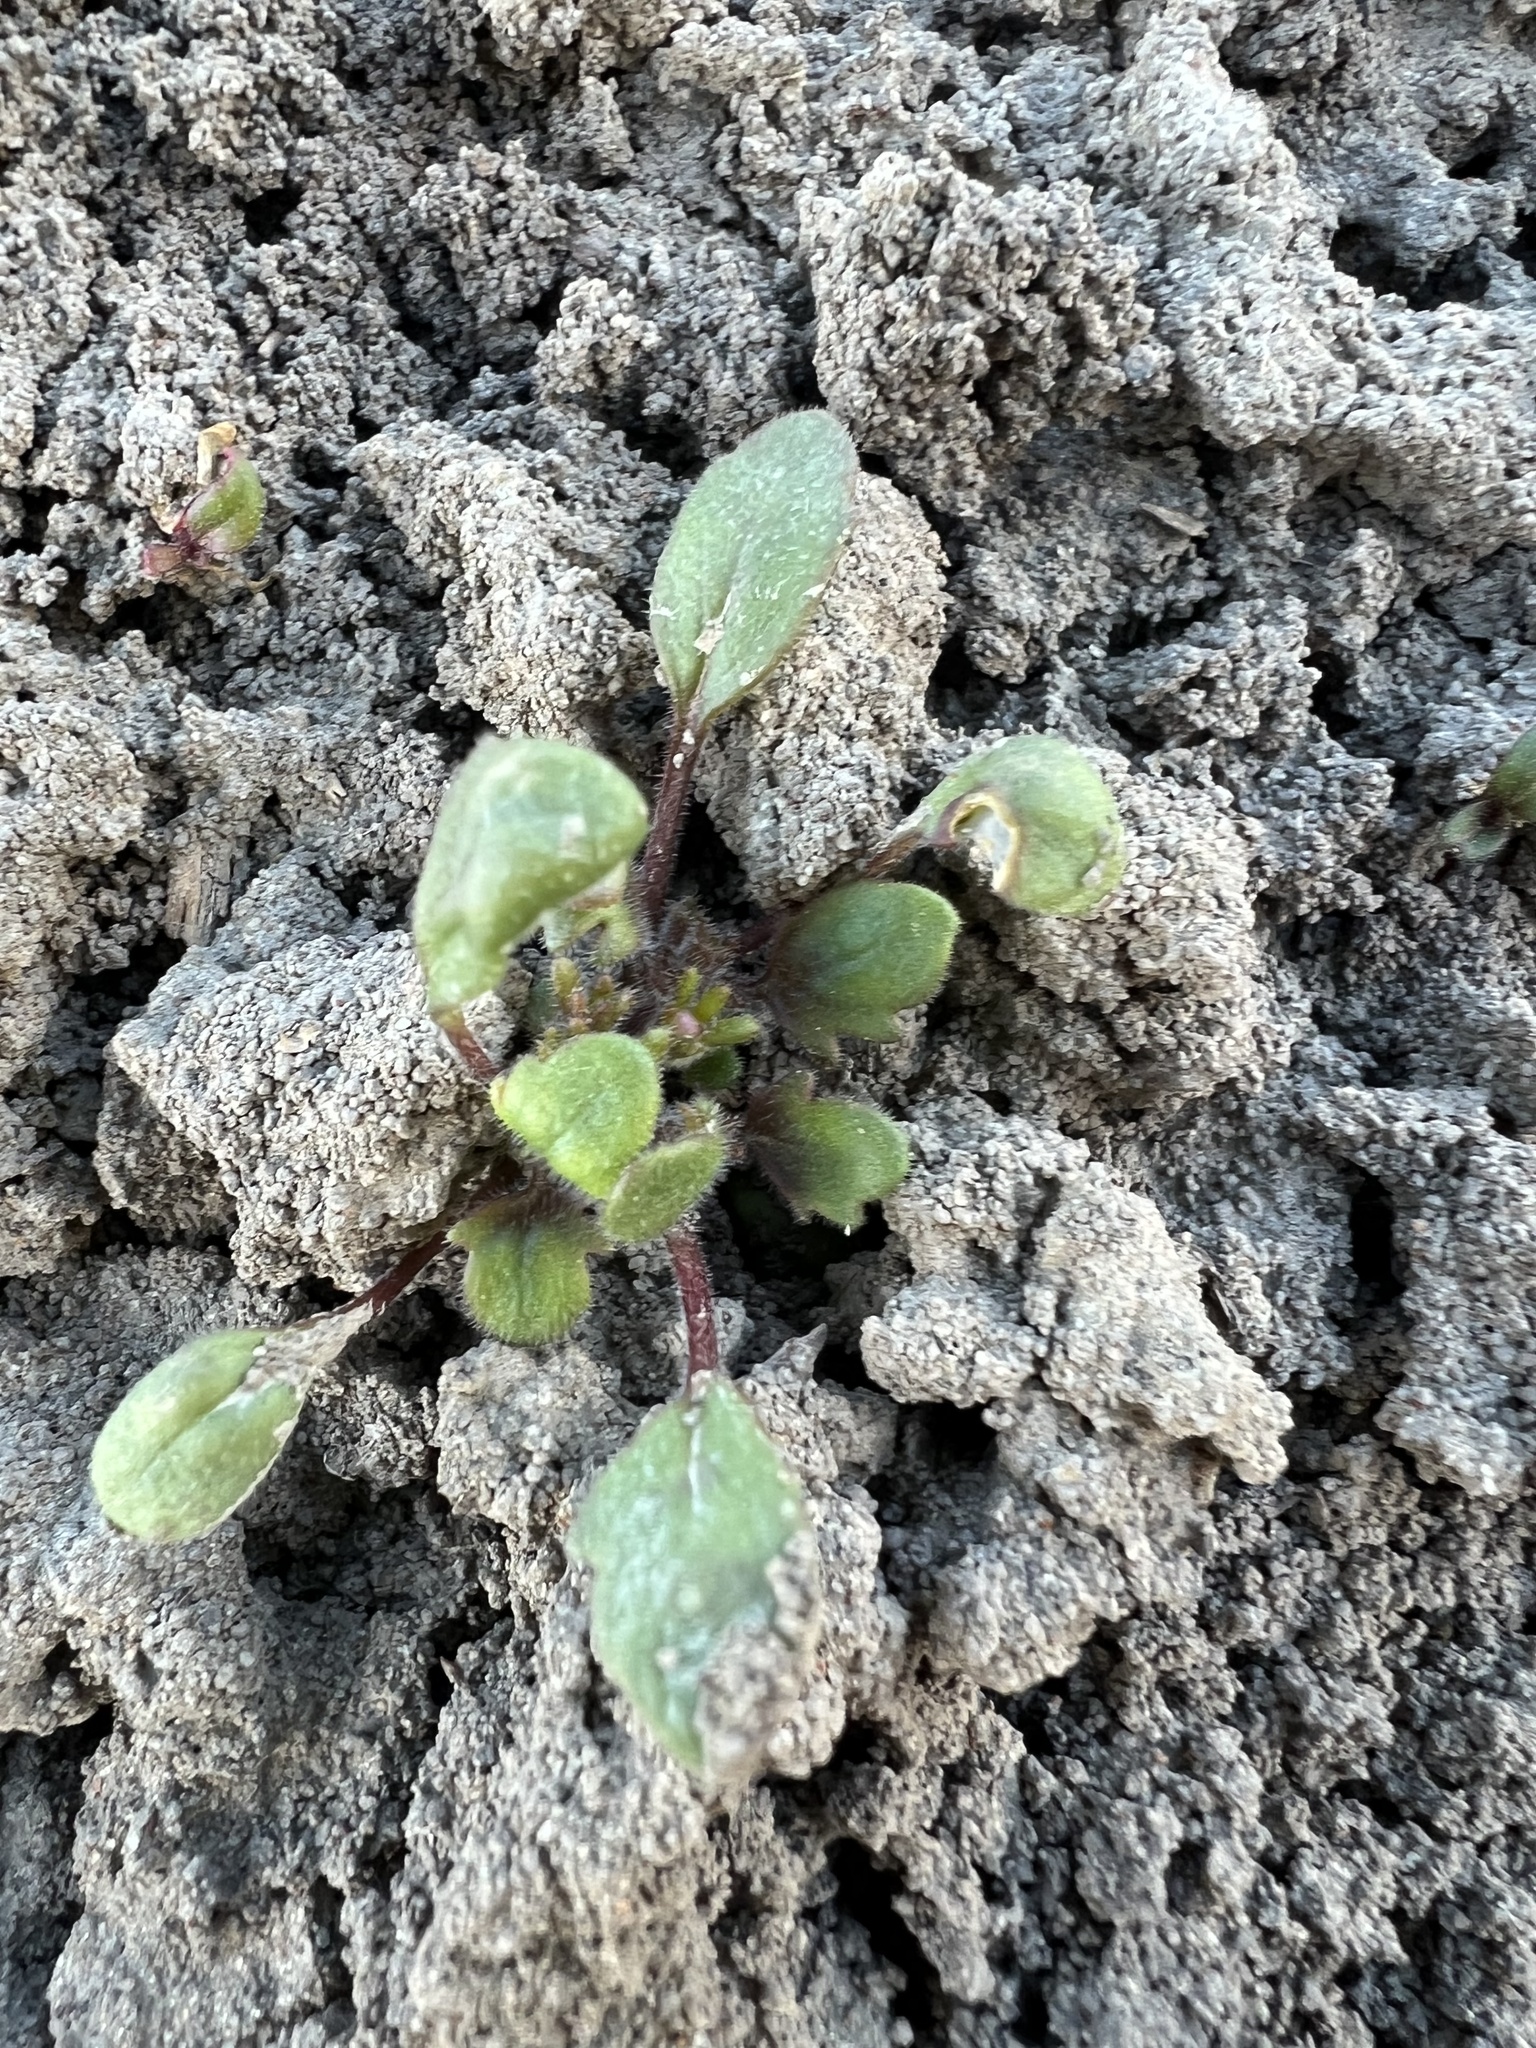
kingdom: Plantae
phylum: Tracheophyta
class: Magnoliopsida
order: Boraginales
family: Hydrophyllaceae
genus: Phacelia
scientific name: Phacelia scopulina
